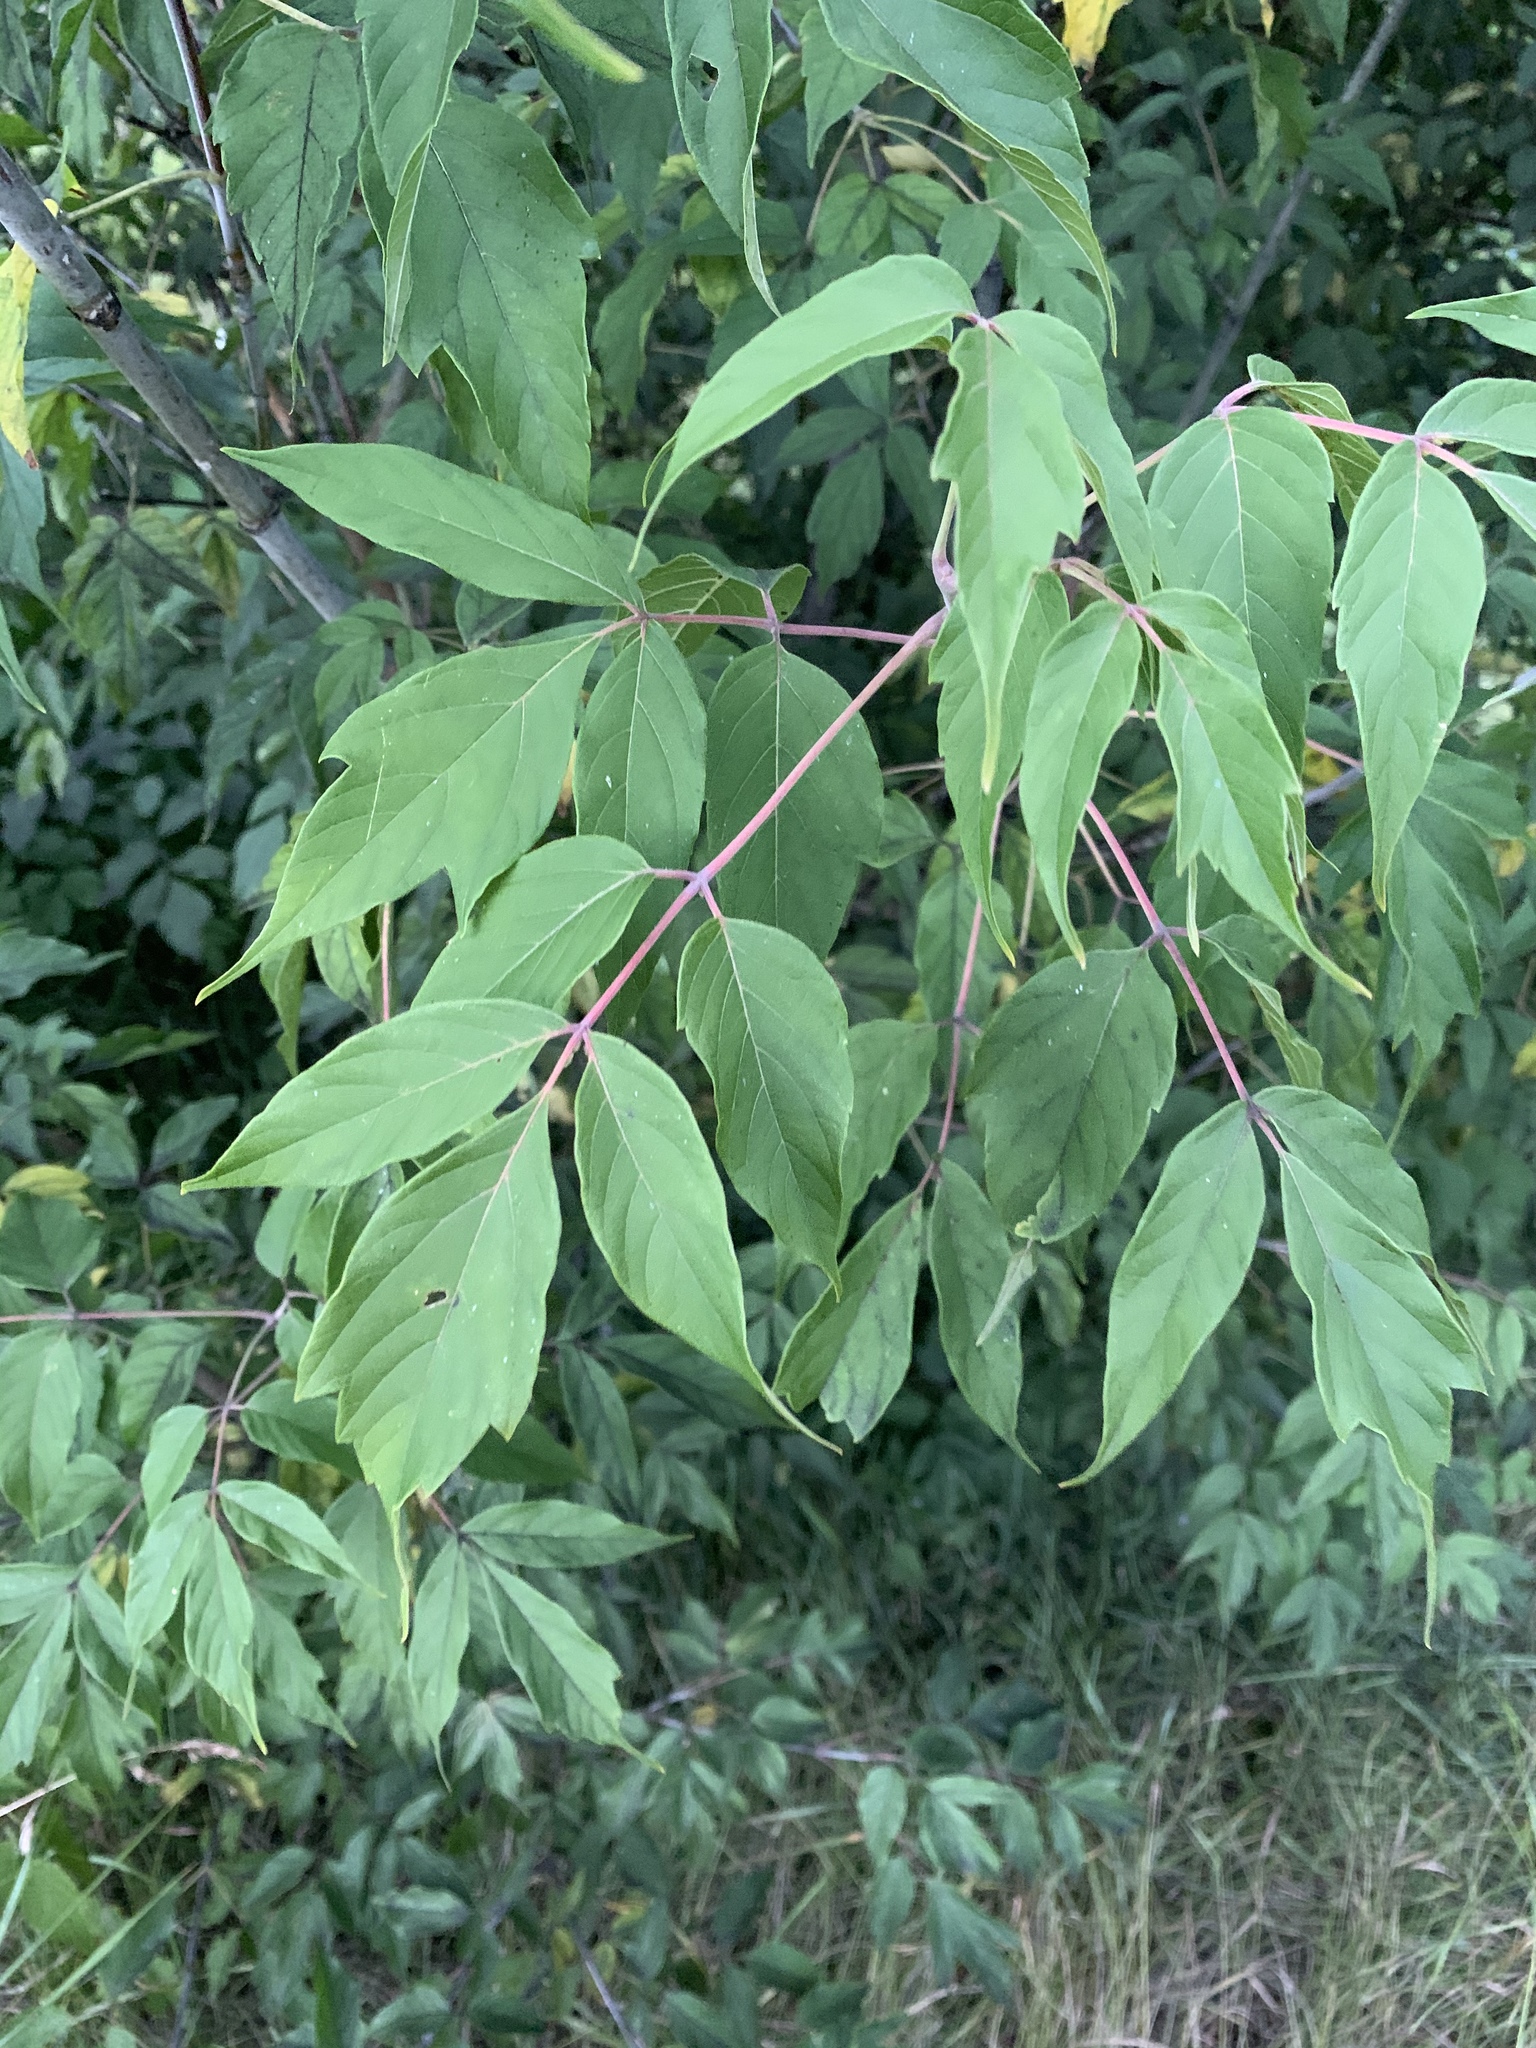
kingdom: Plantae
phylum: Tracheophyta
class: Magnoliopsida
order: Sapindales
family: Sapindaceae
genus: Acer
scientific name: Acer negundo
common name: Ashleaf maple
